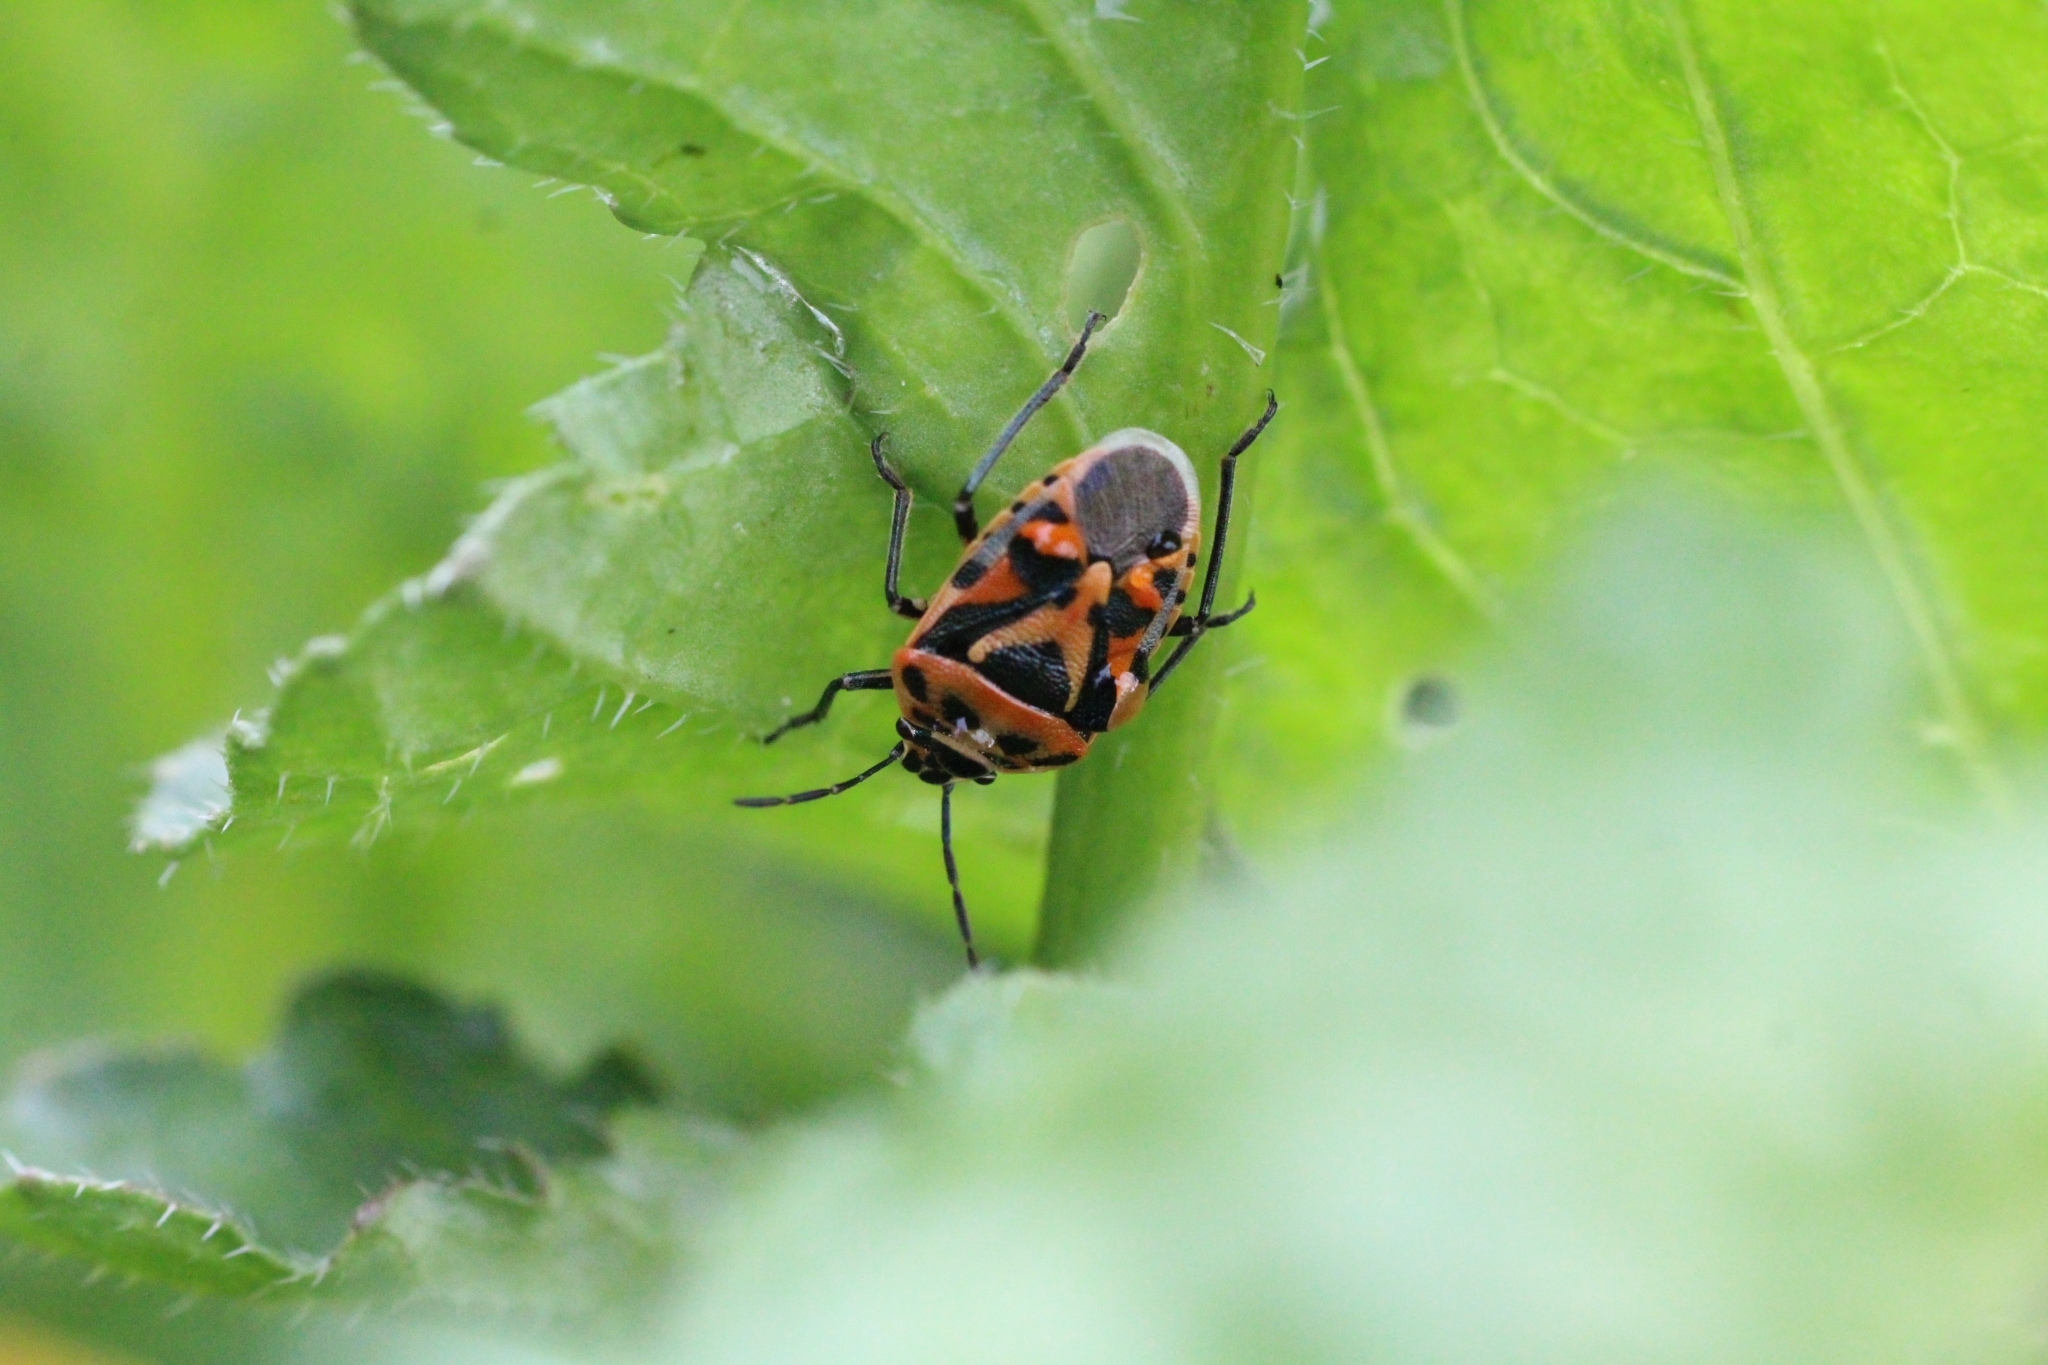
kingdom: Animalia
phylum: Arthropoda
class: Insecta
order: Hemiptera
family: Pentatomidae
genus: Eurydema
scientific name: Eurydema ornata
